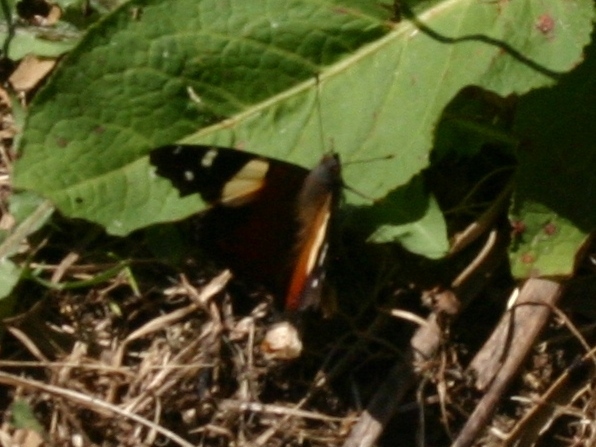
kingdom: Animalia
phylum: Arthropoda
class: Insecta
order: Lepidoptera
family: Nymphalidae
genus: Vanessa
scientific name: Vanessa itea
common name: Yellow admiral
